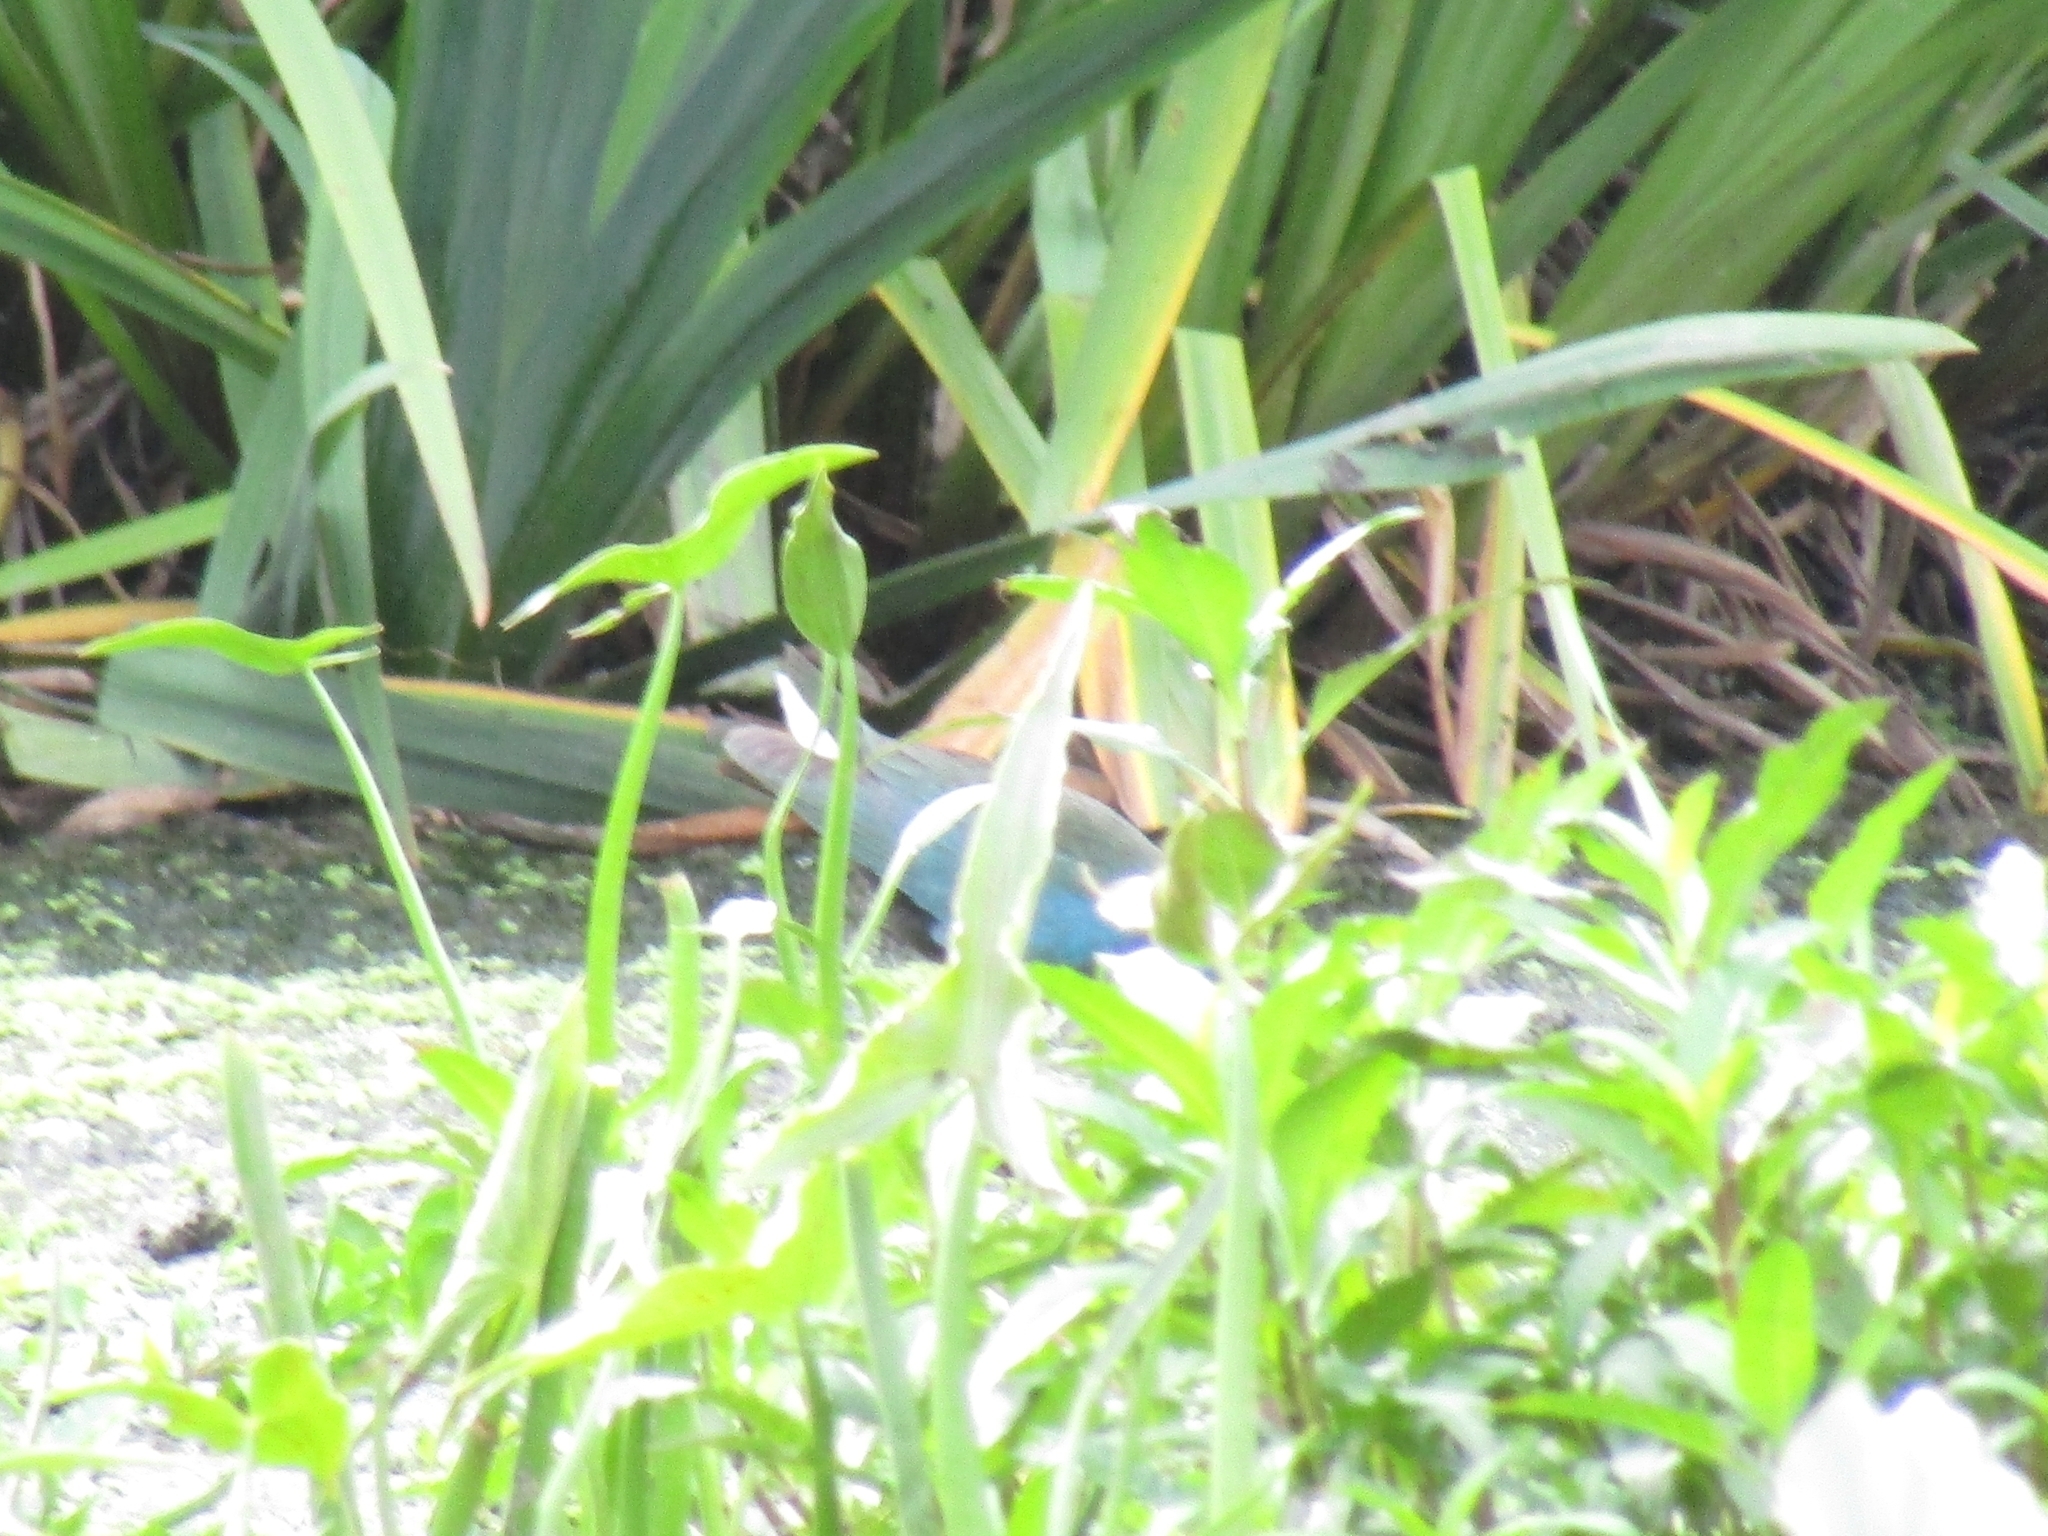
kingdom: Animalia
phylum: Chordata
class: Aves
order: Gruiformes
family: Rallidae
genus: Porphyrio
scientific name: Porphyrio martinica
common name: Purple gallinule
